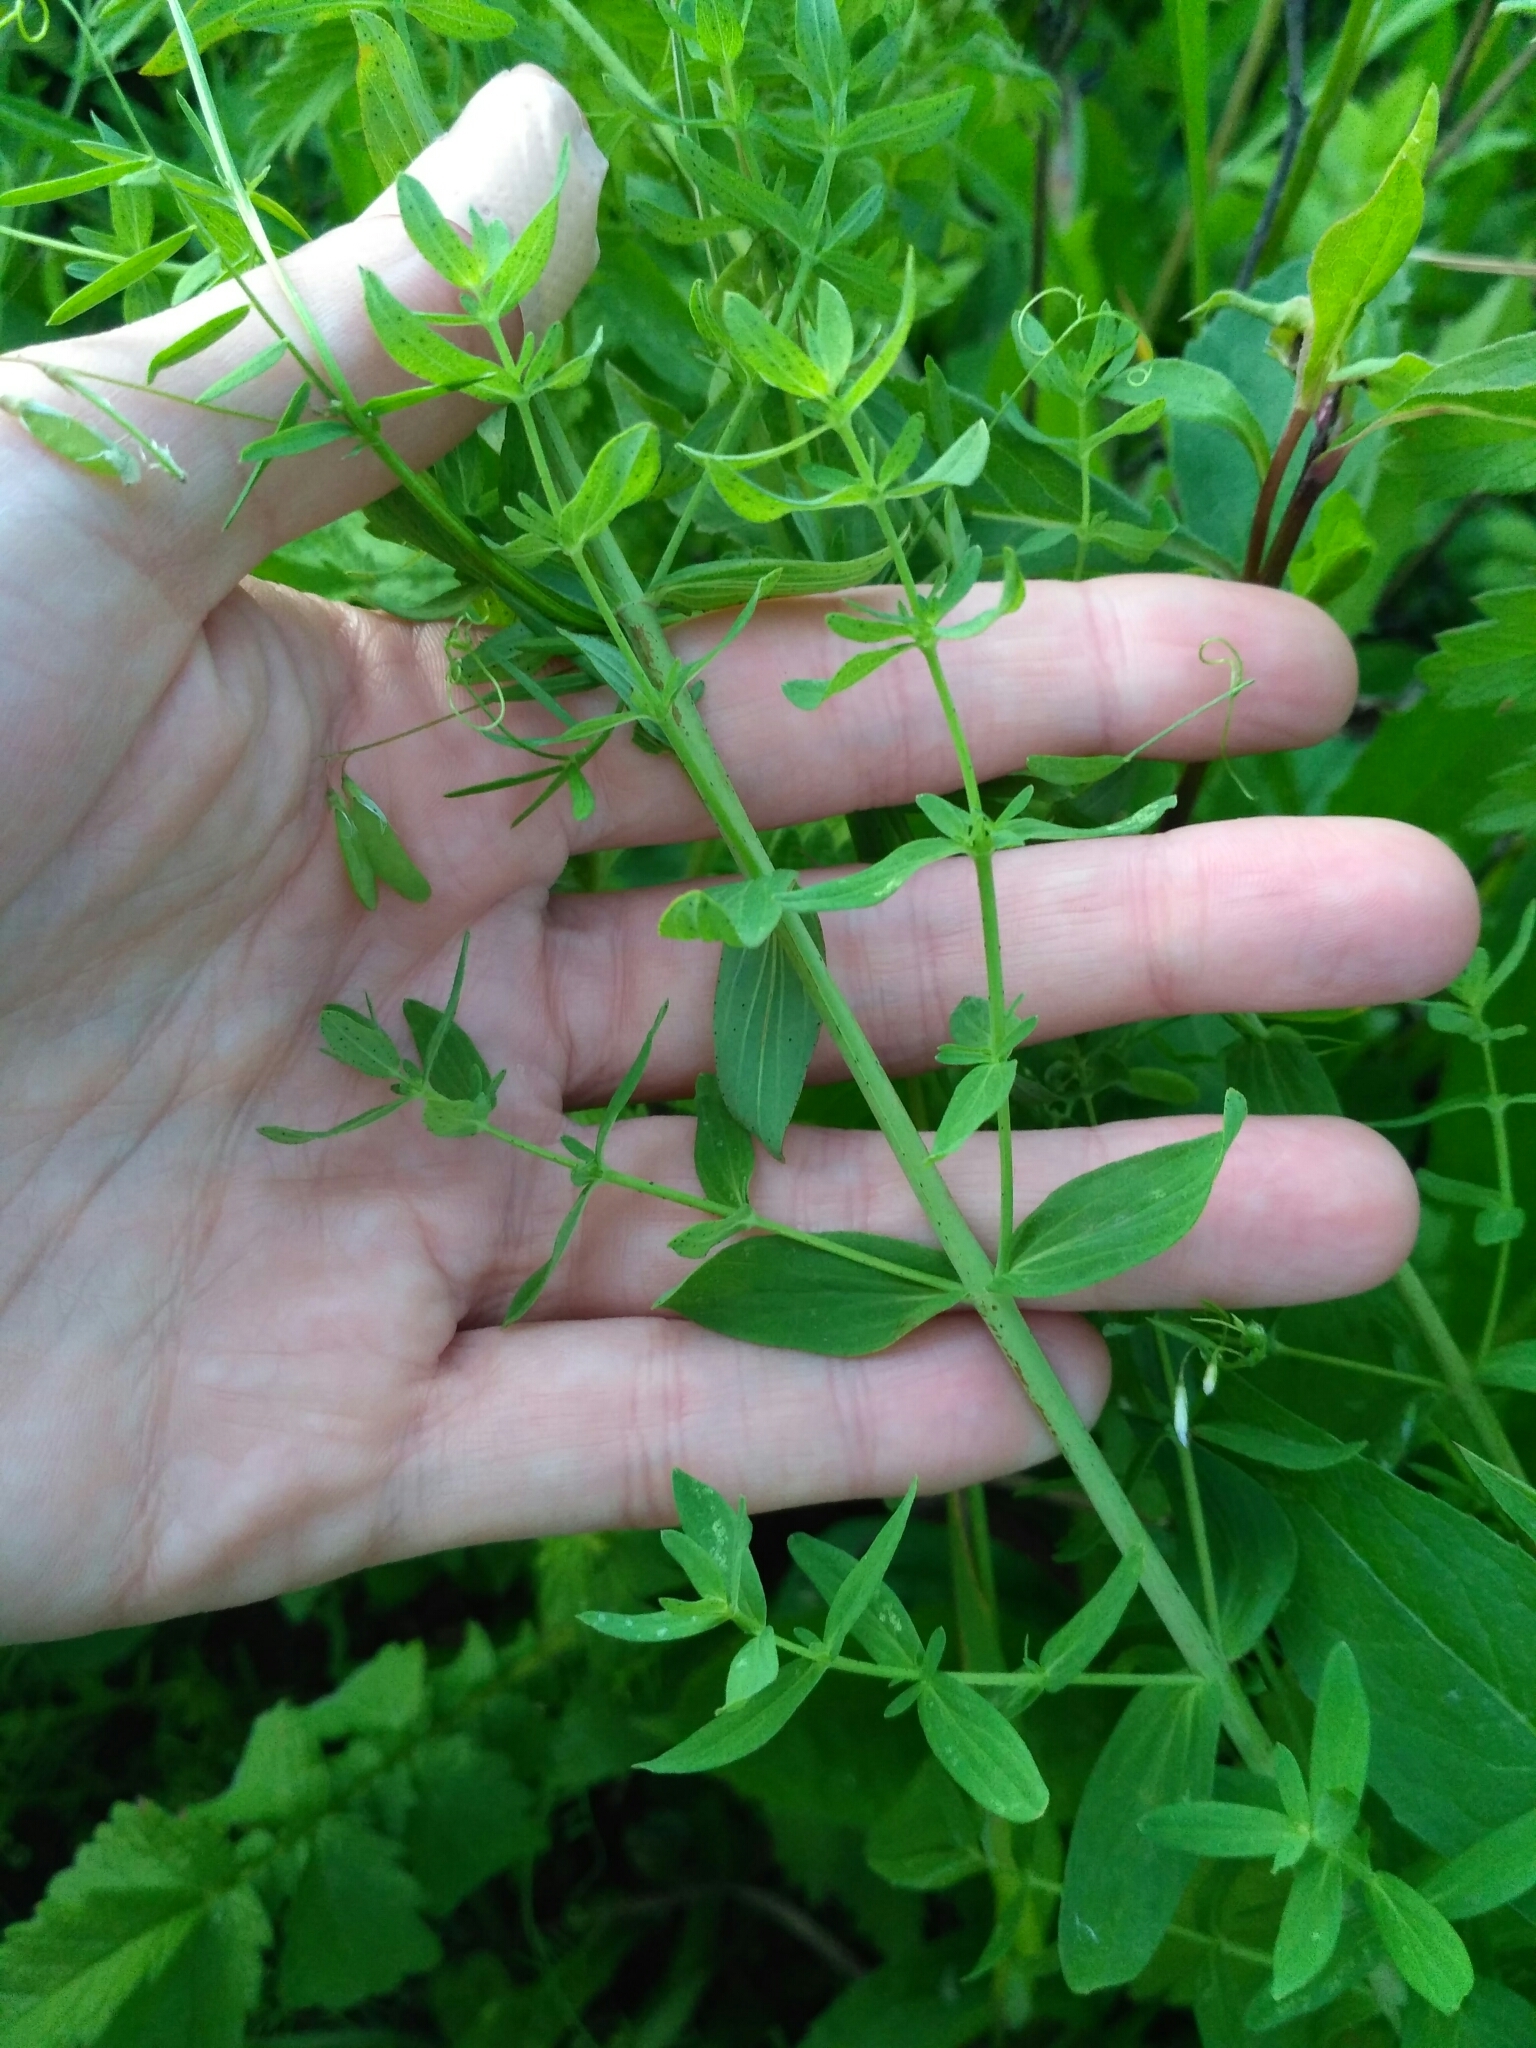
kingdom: Plantae
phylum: Tracheophyta
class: Magnoliopsida
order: Malpighiales
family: Hypericaceae
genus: Hypericum
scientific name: Hypericum perforatum
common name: Common st. johnswort
